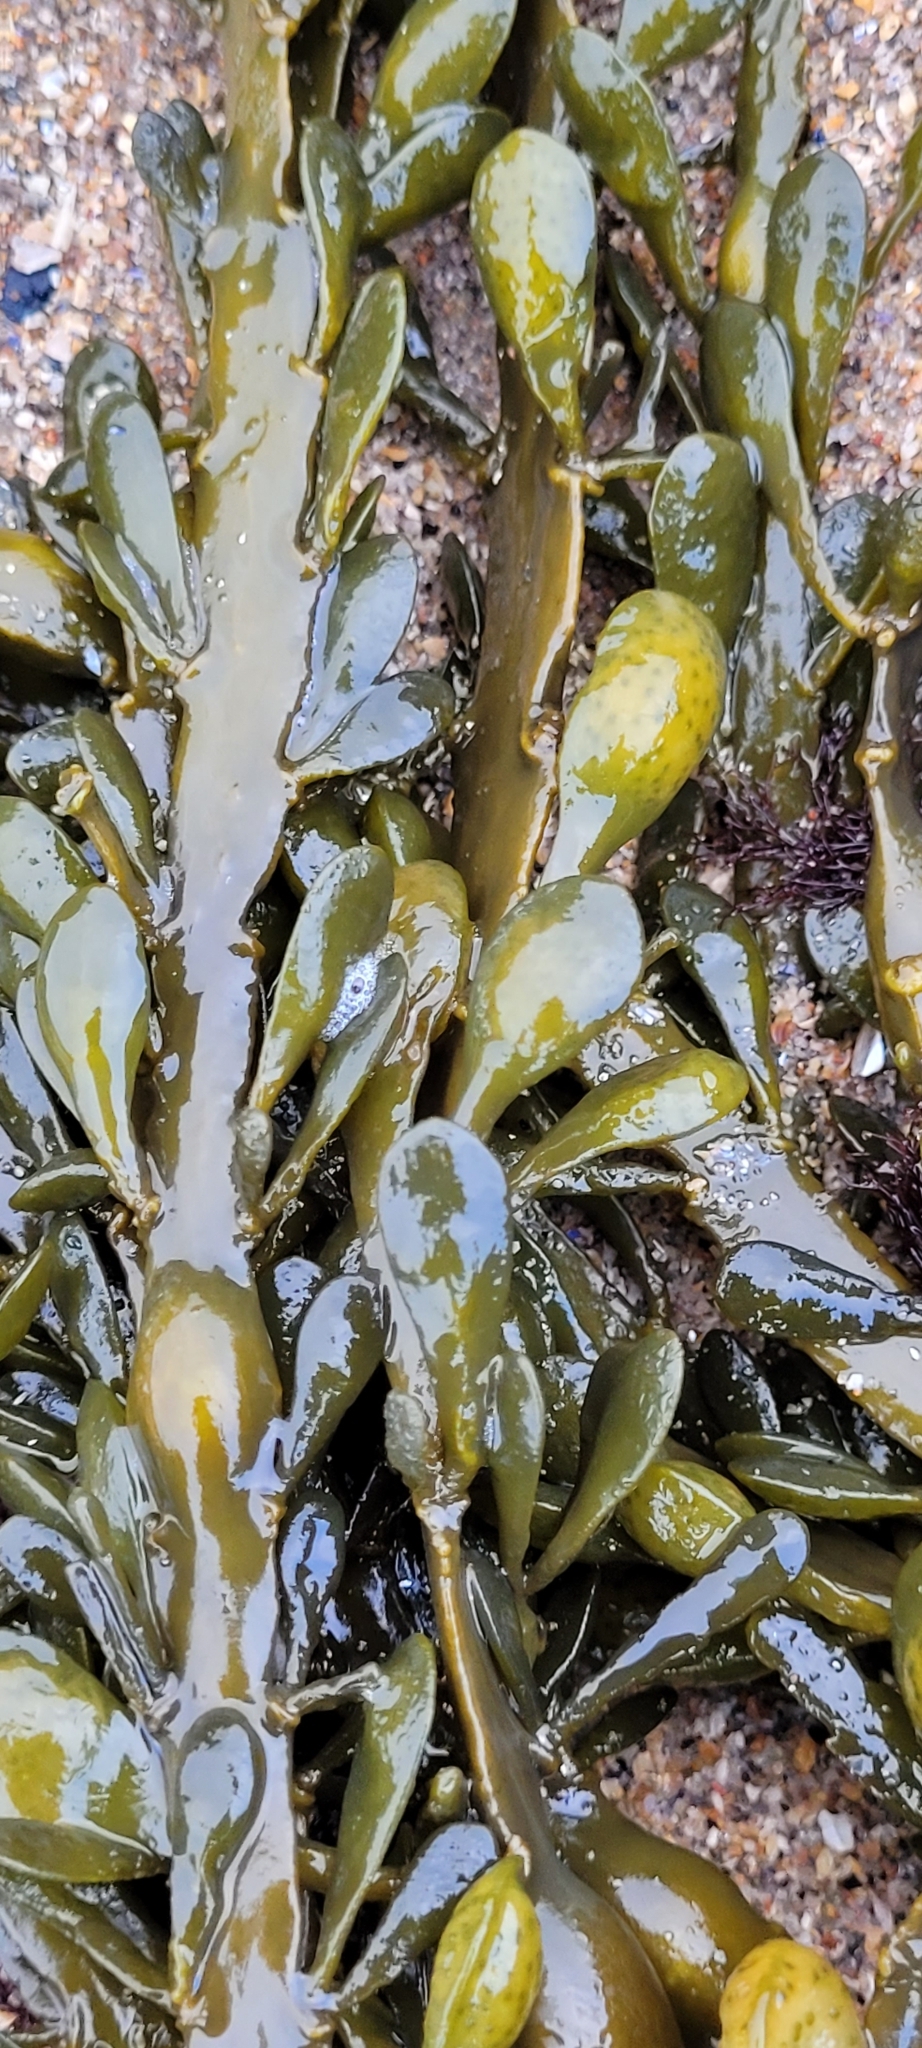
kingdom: Chromista
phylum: Ochrophyta
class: Phaeophyceae
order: Fucales
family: Fucaceae
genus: Ascophyllum
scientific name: Ascophyllum nodosum
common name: Knotted wrack
